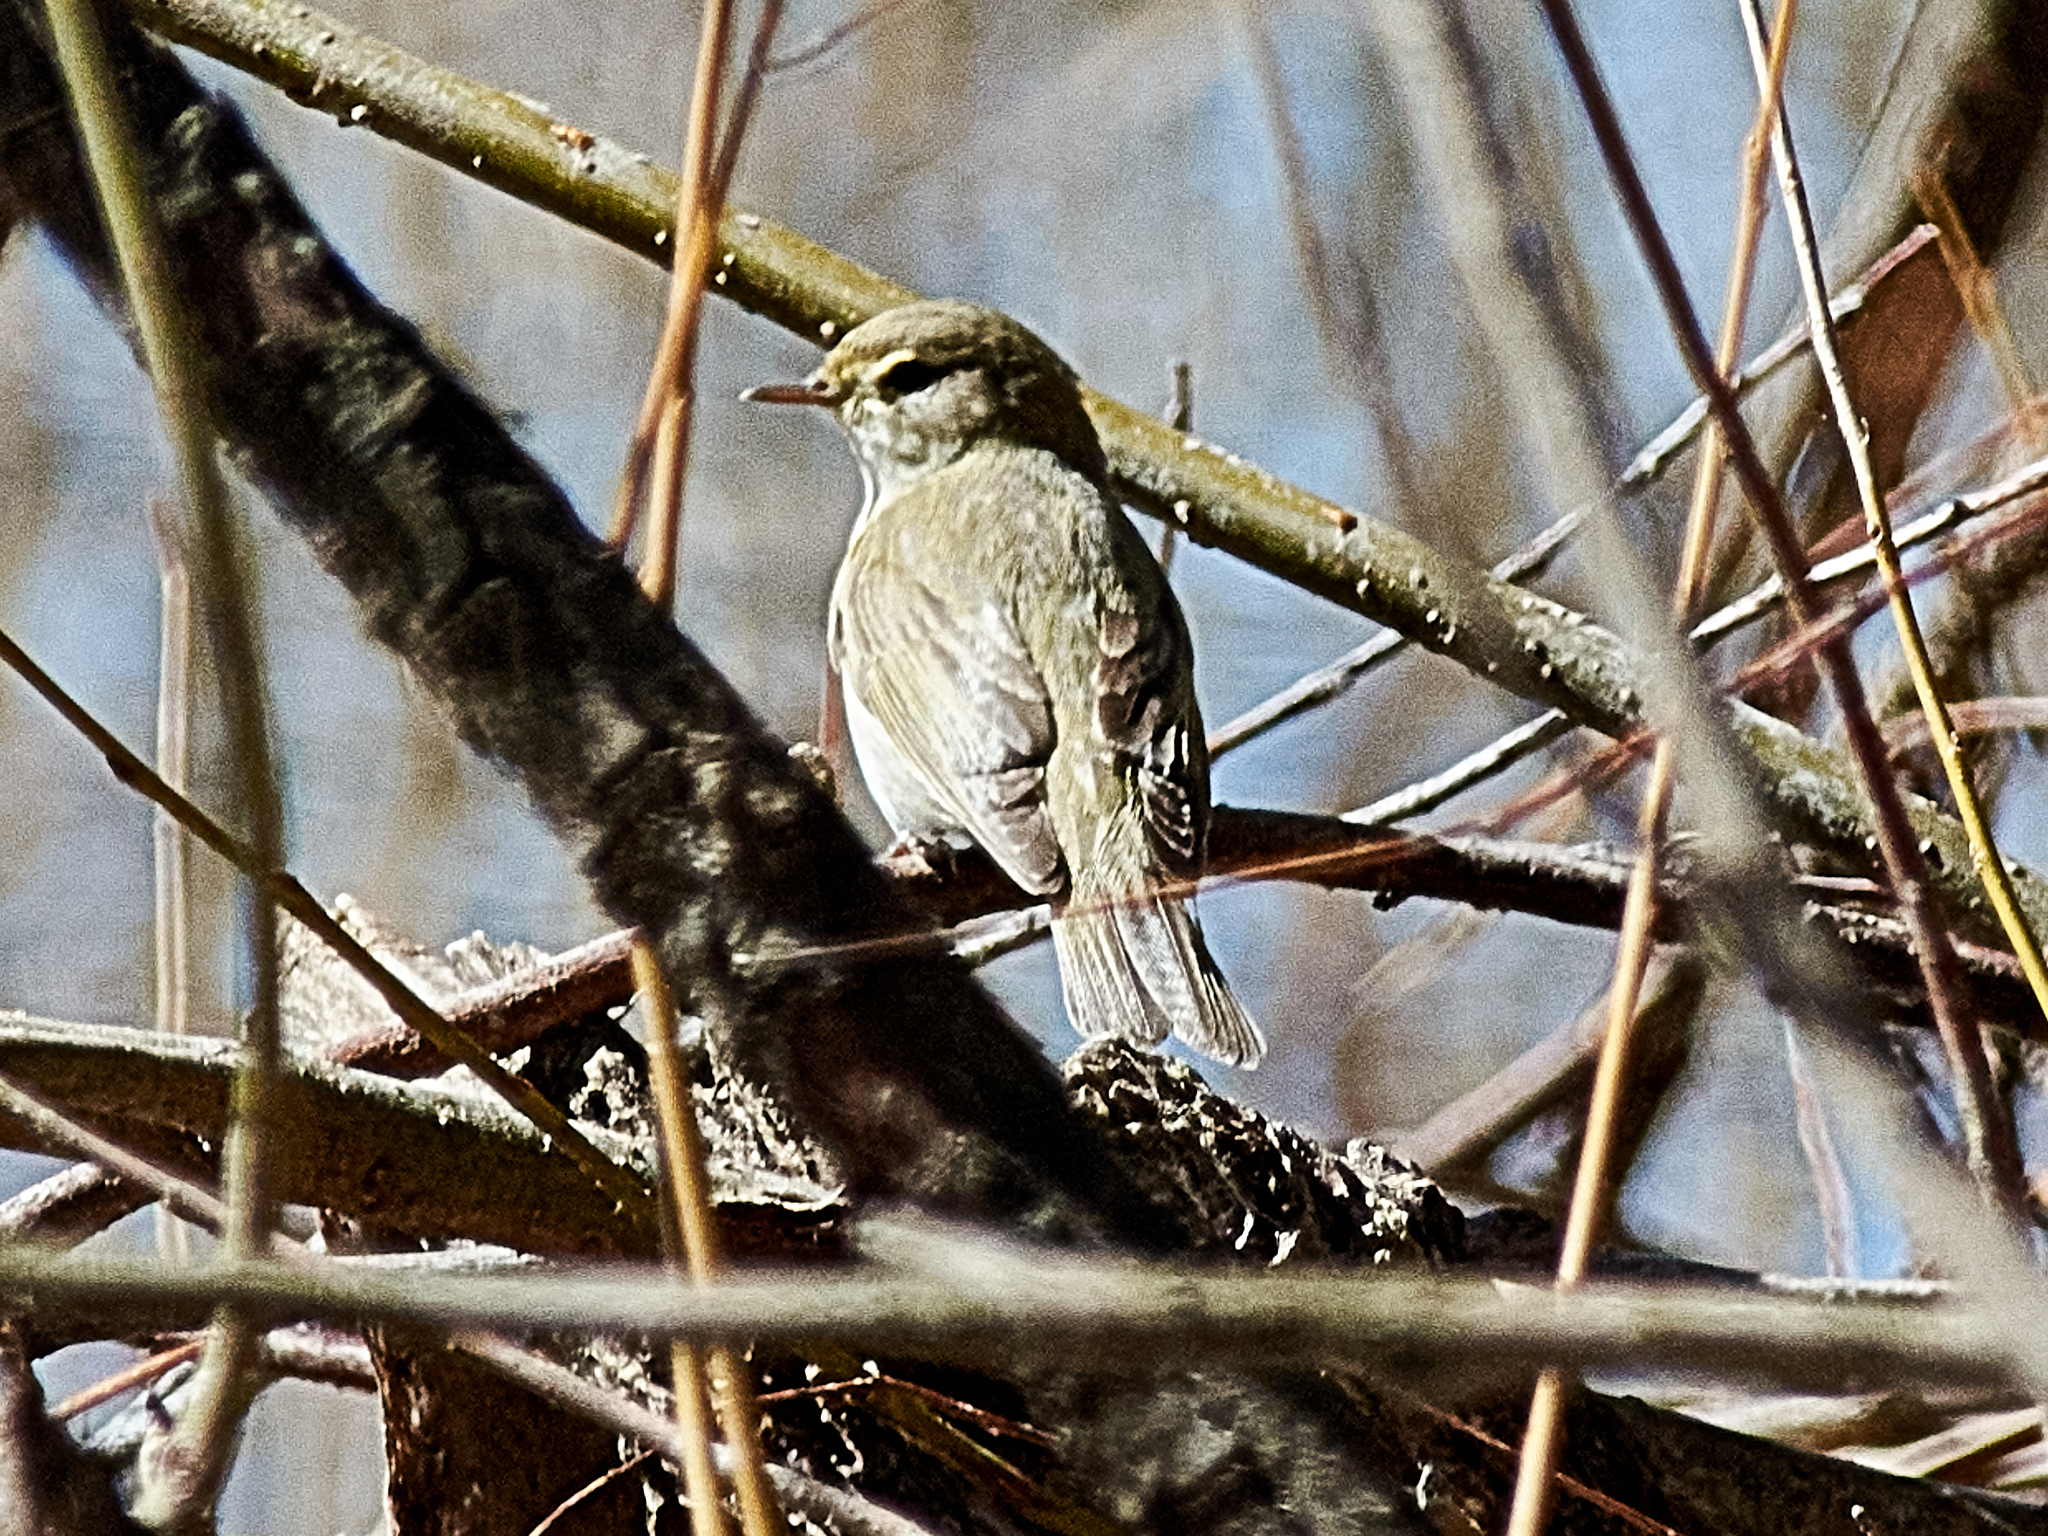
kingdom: Animalia
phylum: Chordata
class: Aves
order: Passeriformes
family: Phylloscopidae
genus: Phylloscopus
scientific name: Phylloscopus trochilus
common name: Willow warbler
